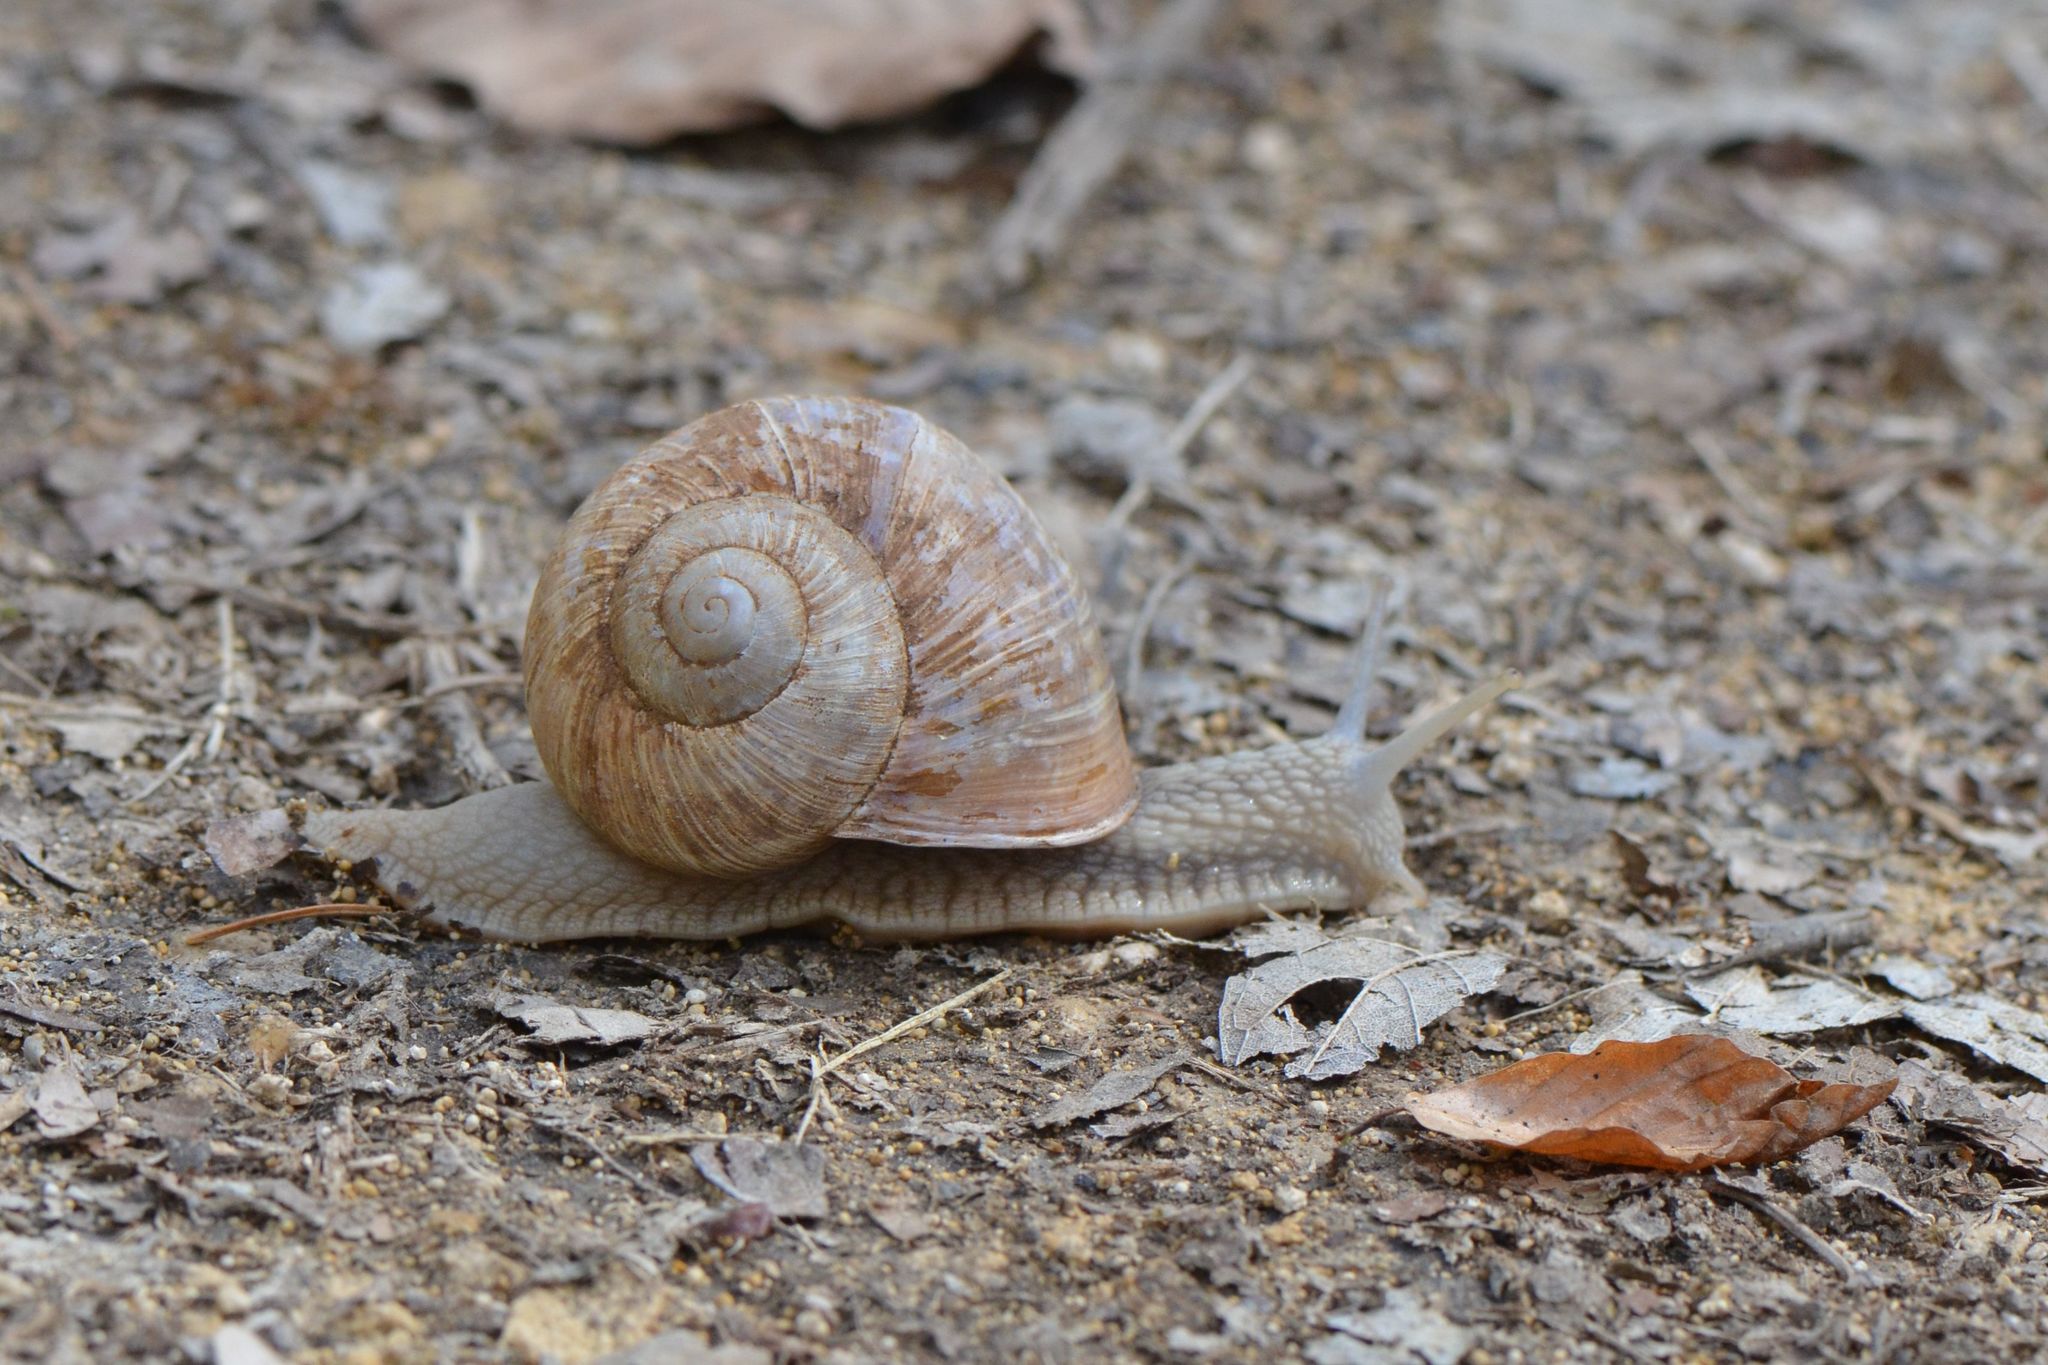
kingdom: Animalia
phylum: Mollusca
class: Gastropoda
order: Stylommatophora
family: Helicidae
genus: Helix
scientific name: Helix pomatia
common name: Roman snail
